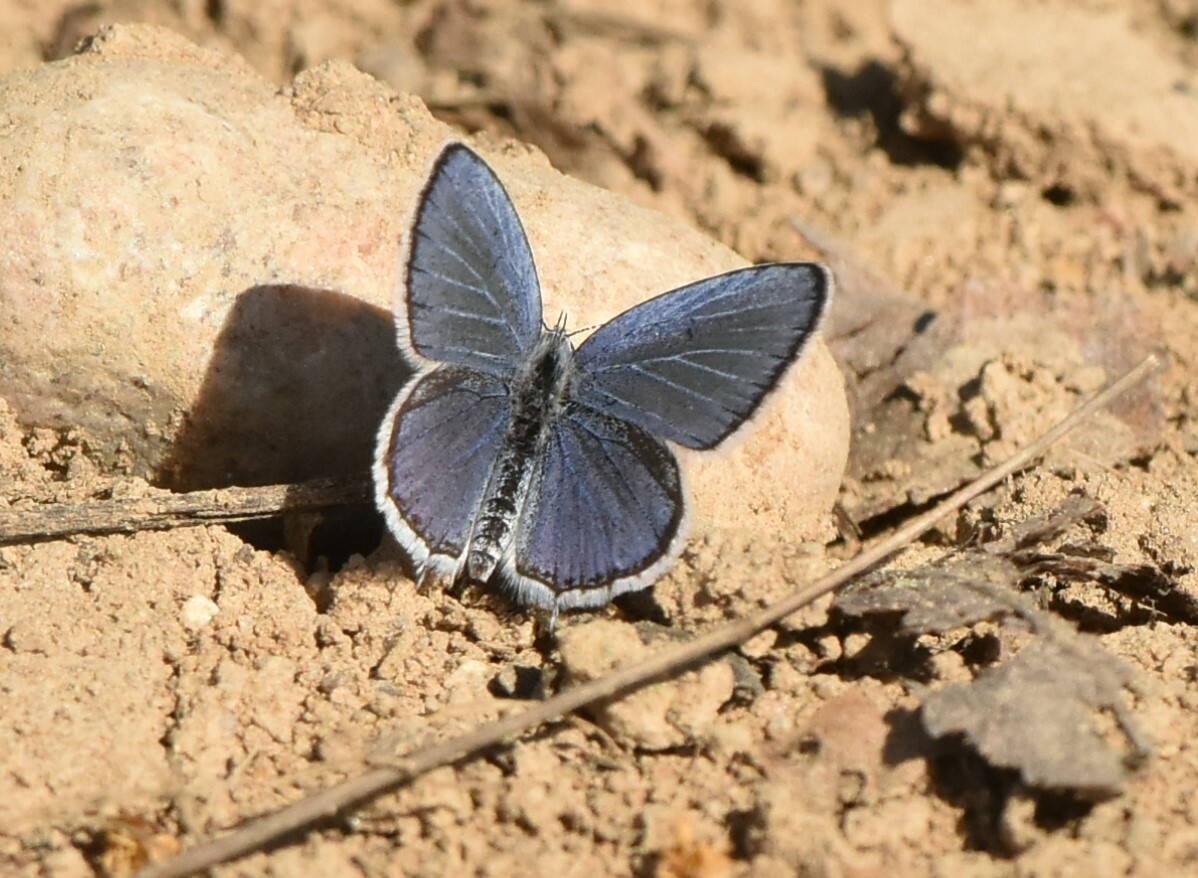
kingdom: Animalia
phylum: Arthropoda
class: Insecta
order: Lepidoptera
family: Lycaenidae
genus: Elkalyce
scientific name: Elkalyce argiades
